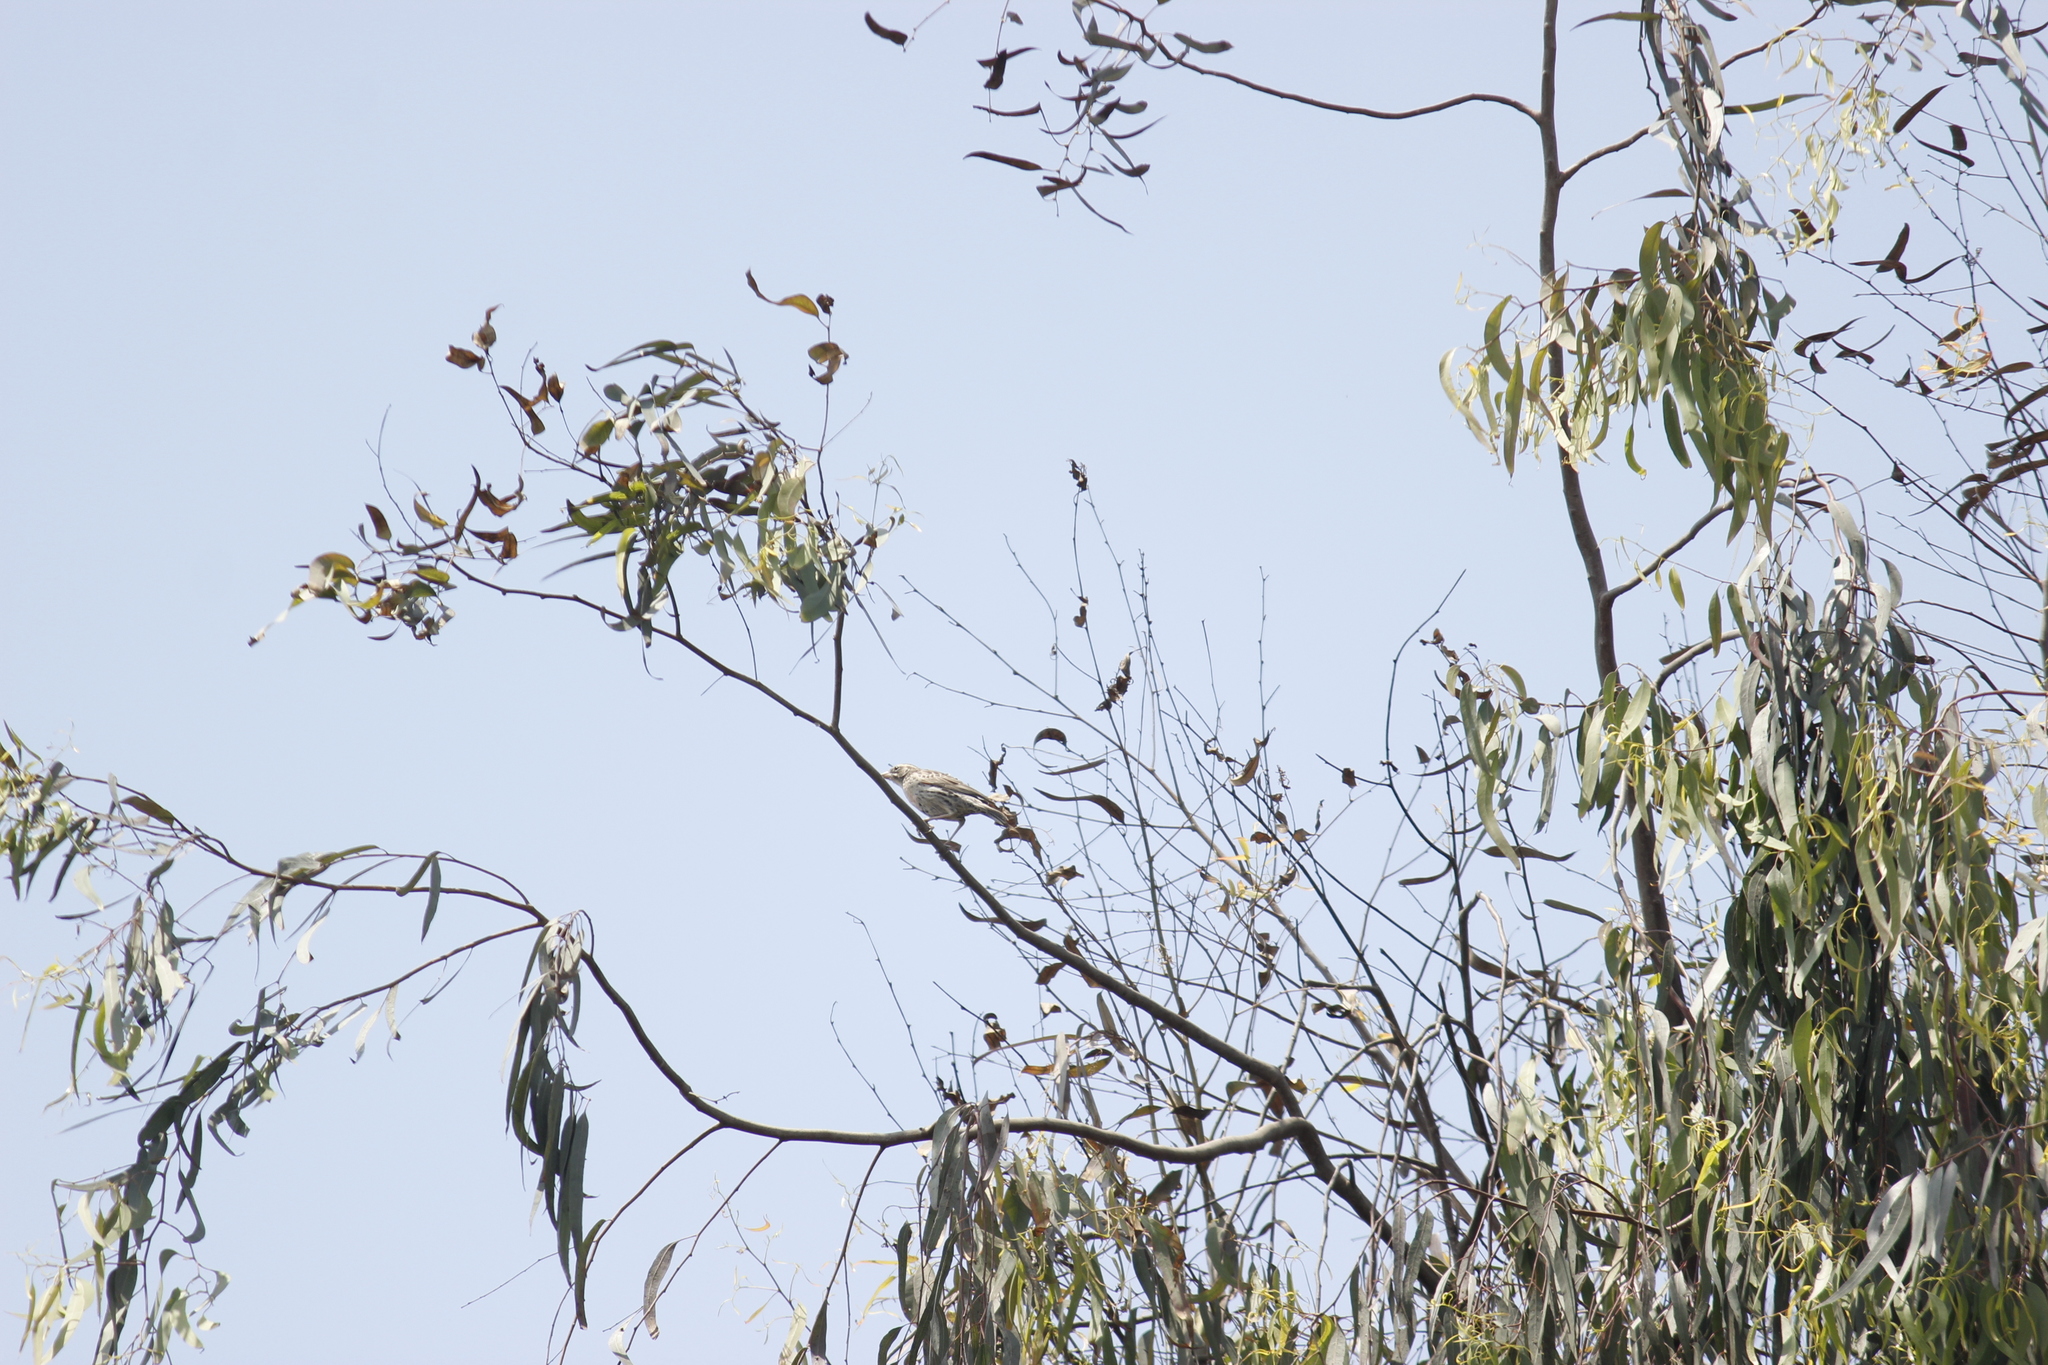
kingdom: Animalia
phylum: Chordata
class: Aves
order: Passeriformes
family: Icteridae
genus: Sturnella
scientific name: Sturnella bellicosa
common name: Peruvian meadowlark
